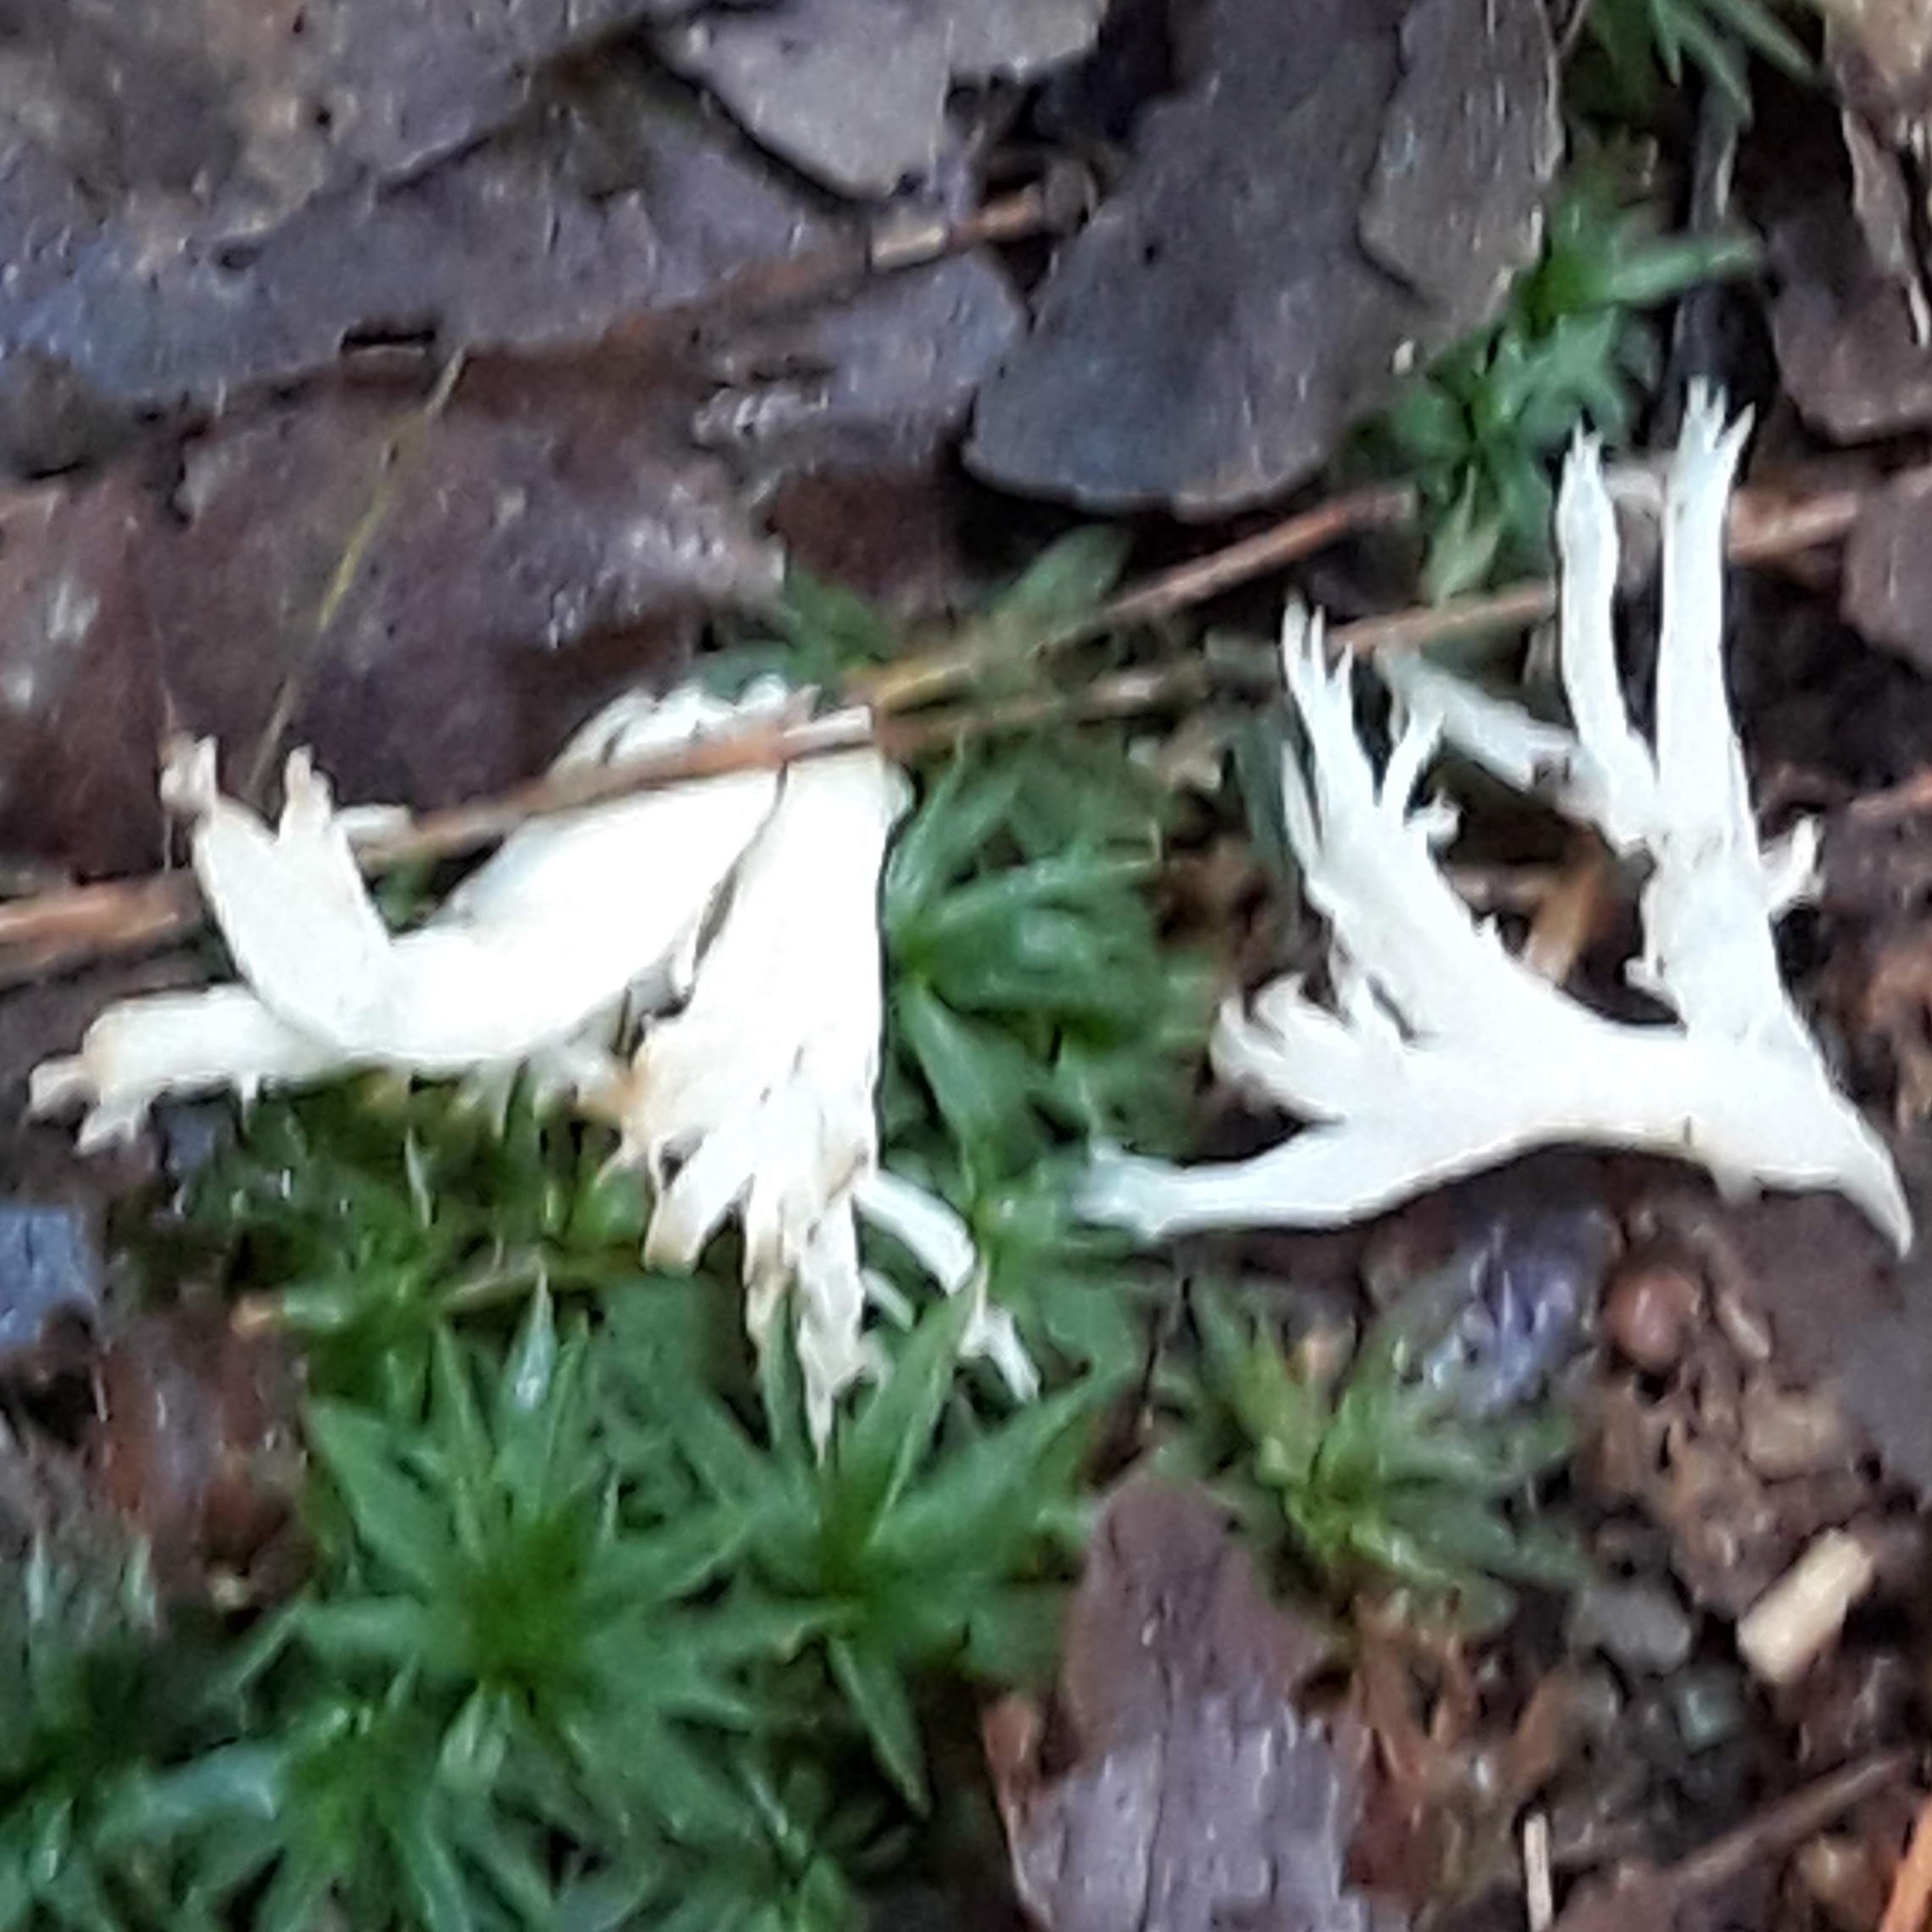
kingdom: Fungi
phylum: Basidiomycota
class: Agaricomycetes
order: Cantharellales
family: Hydnaceae
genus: Clavulina
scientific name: Clavulina coralloides
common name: Crested coral
